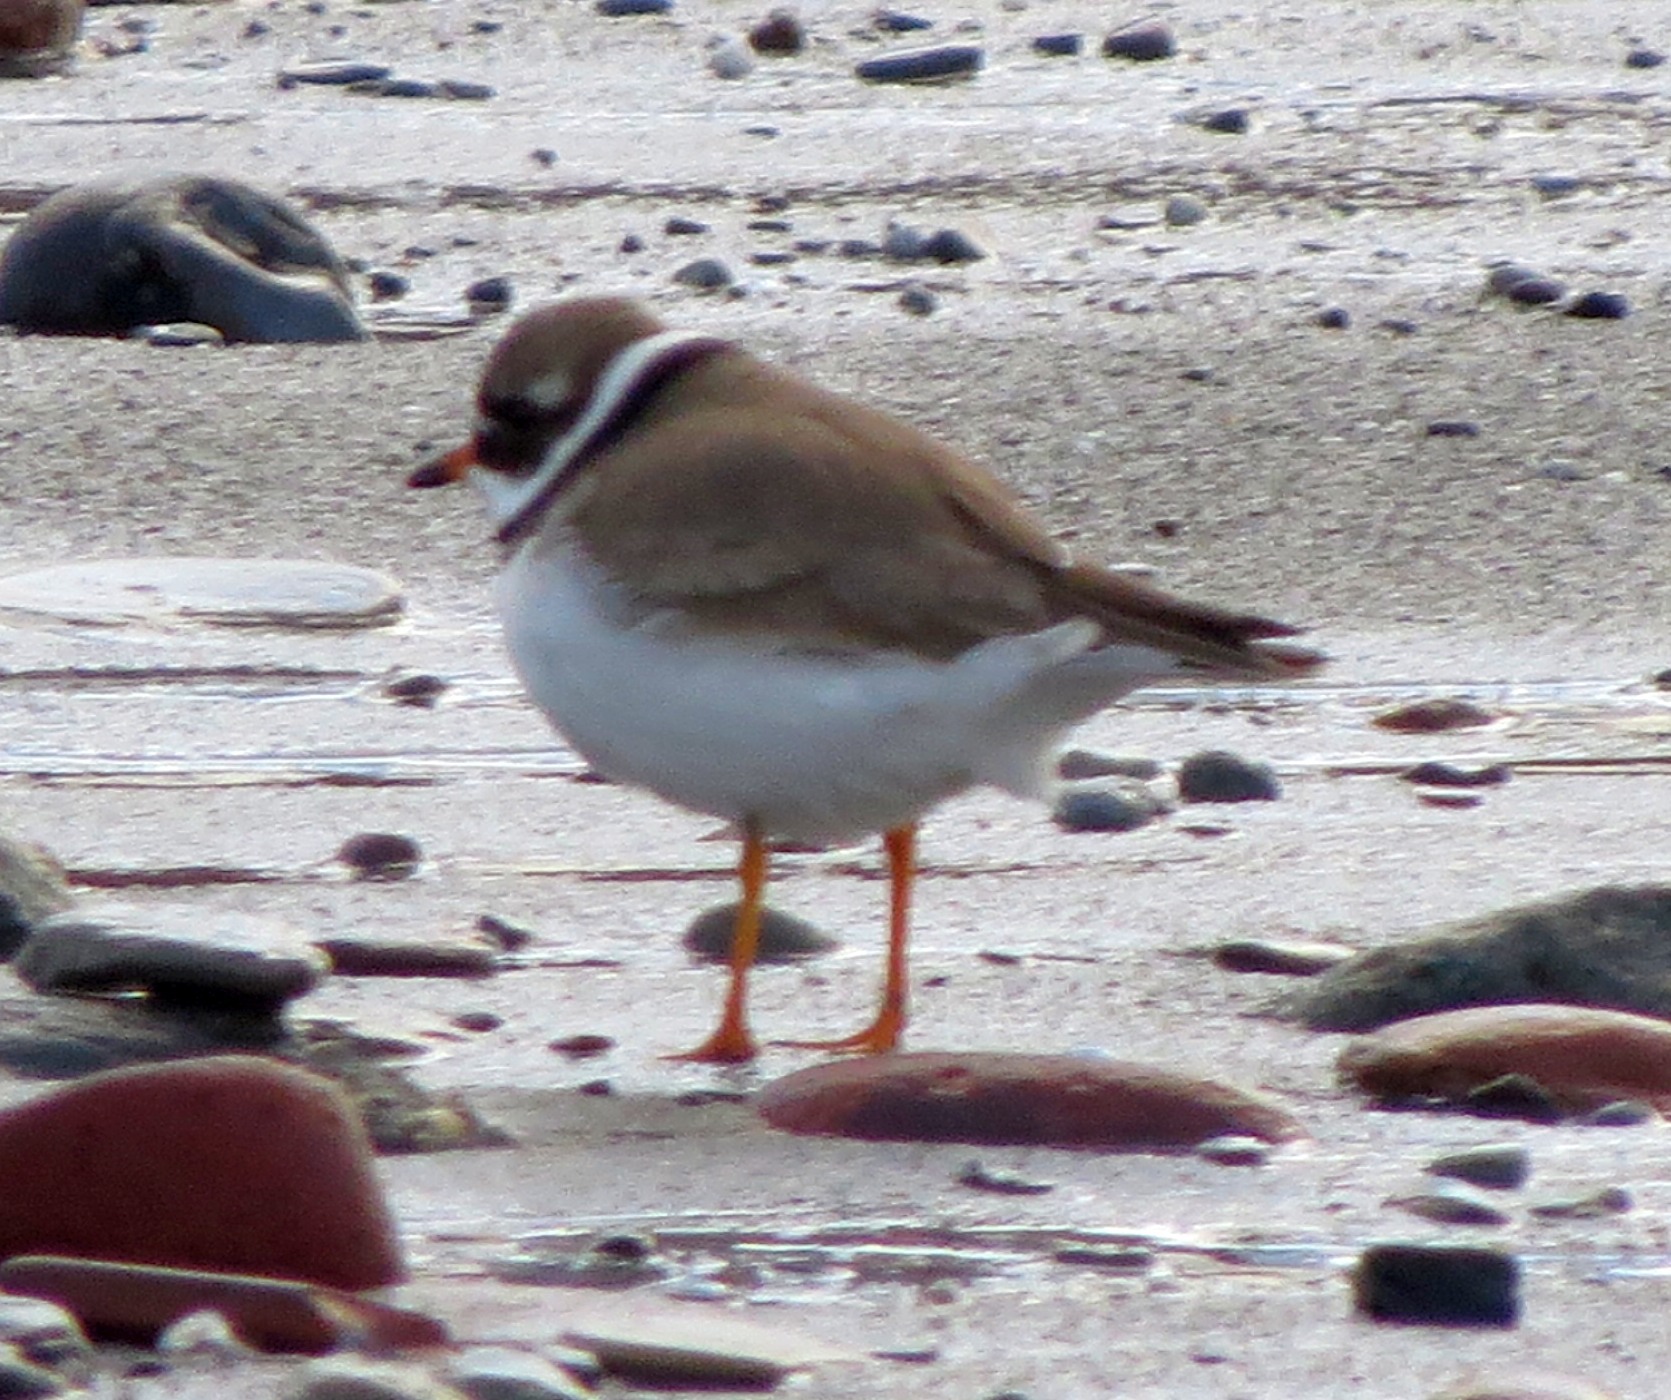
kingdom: Animalia
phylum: Chordata
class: Aves
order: Charadriiformes
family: Charadriidae
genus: Charadrius
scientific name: Charadrius hiaticula
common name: Common ringed plover
